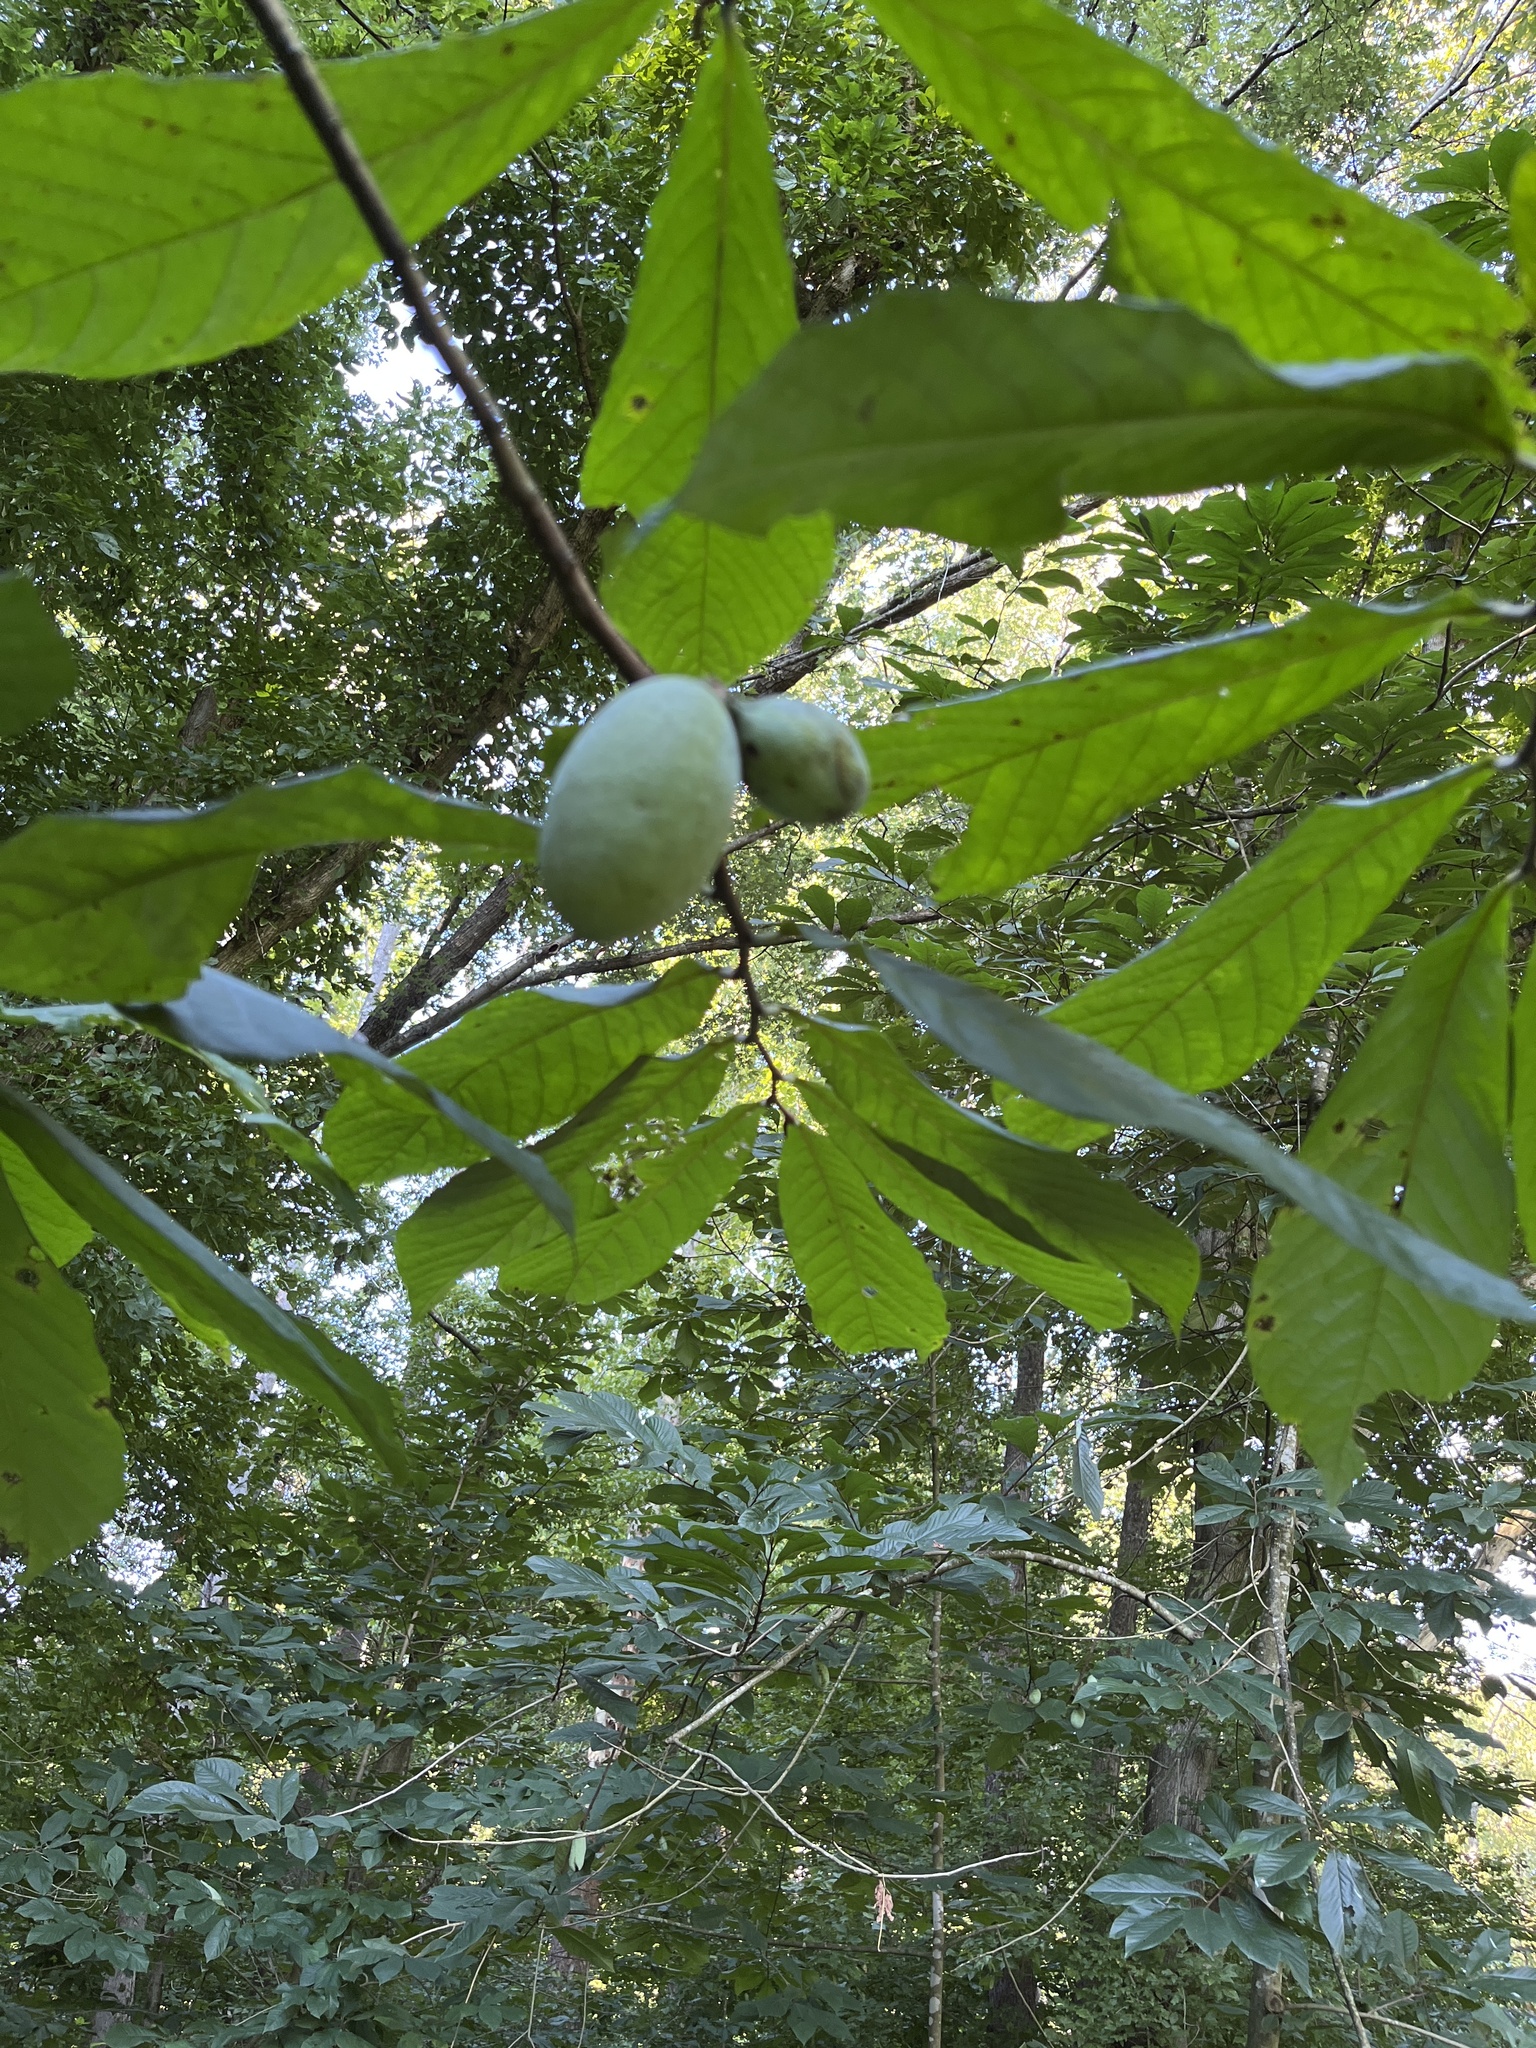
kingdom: Plantae
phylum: Tracheophyta
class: Magnoliopsida
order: Magnoliales
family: Annonaceae
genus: Asimina
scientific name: Asimina triloba
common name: Dog-banana
